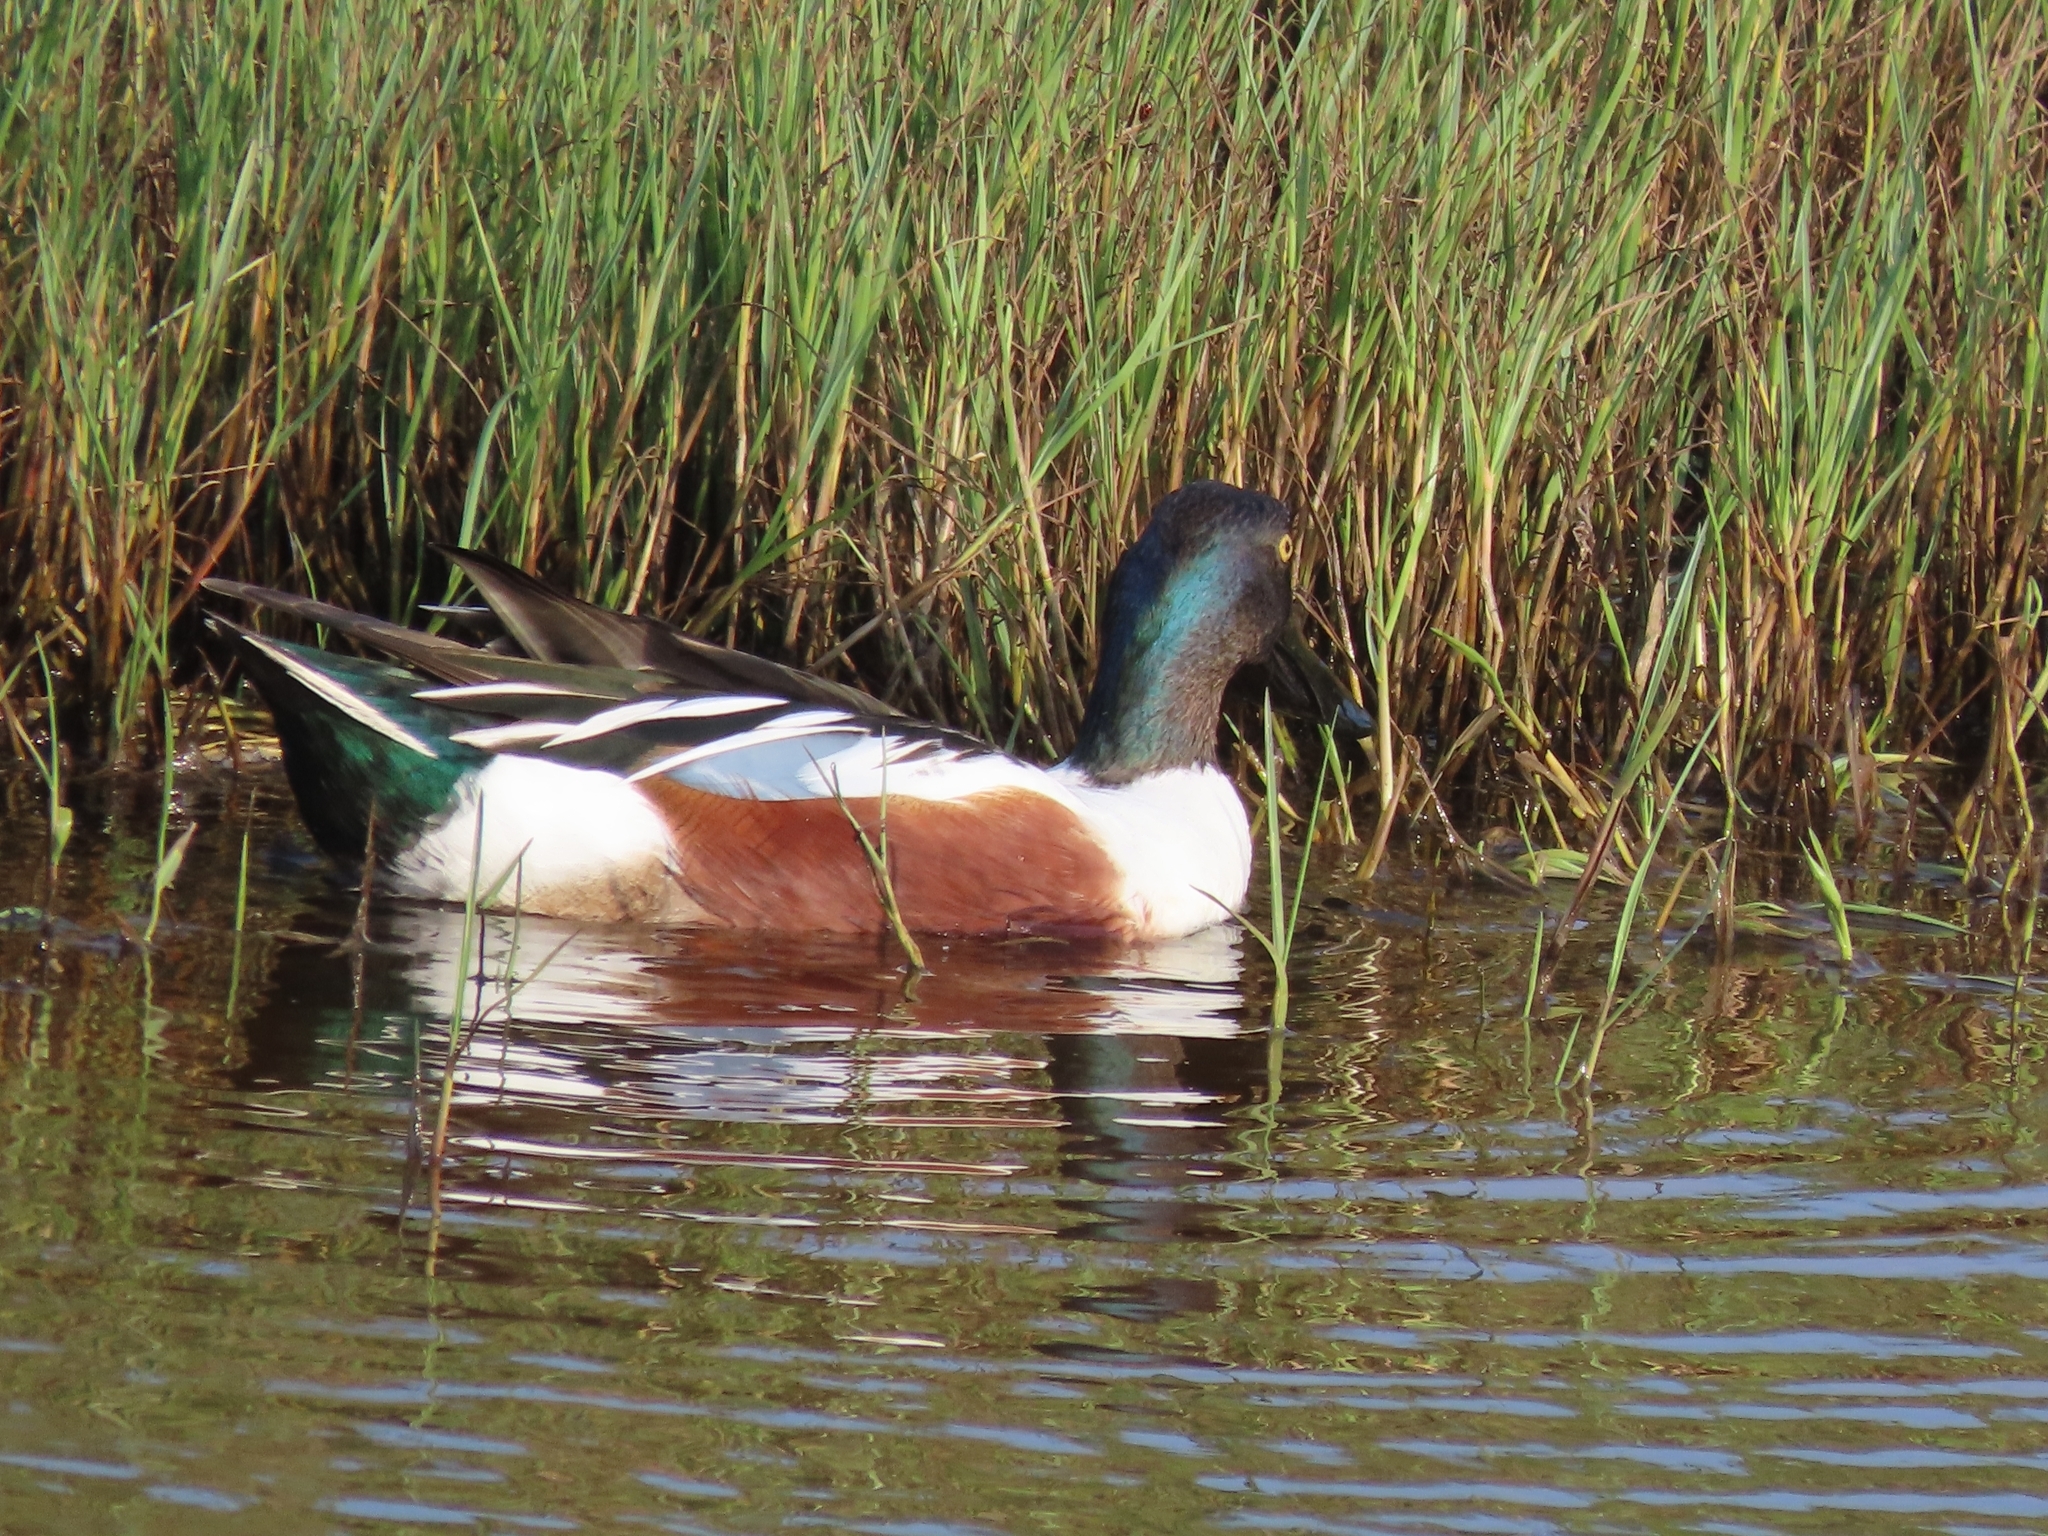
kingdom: Animalia
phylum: Chordata
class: Aves
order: Anseriformes
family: Anatidae
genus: Spatula
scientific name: Spatula clypeata
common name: Northern shoveler
